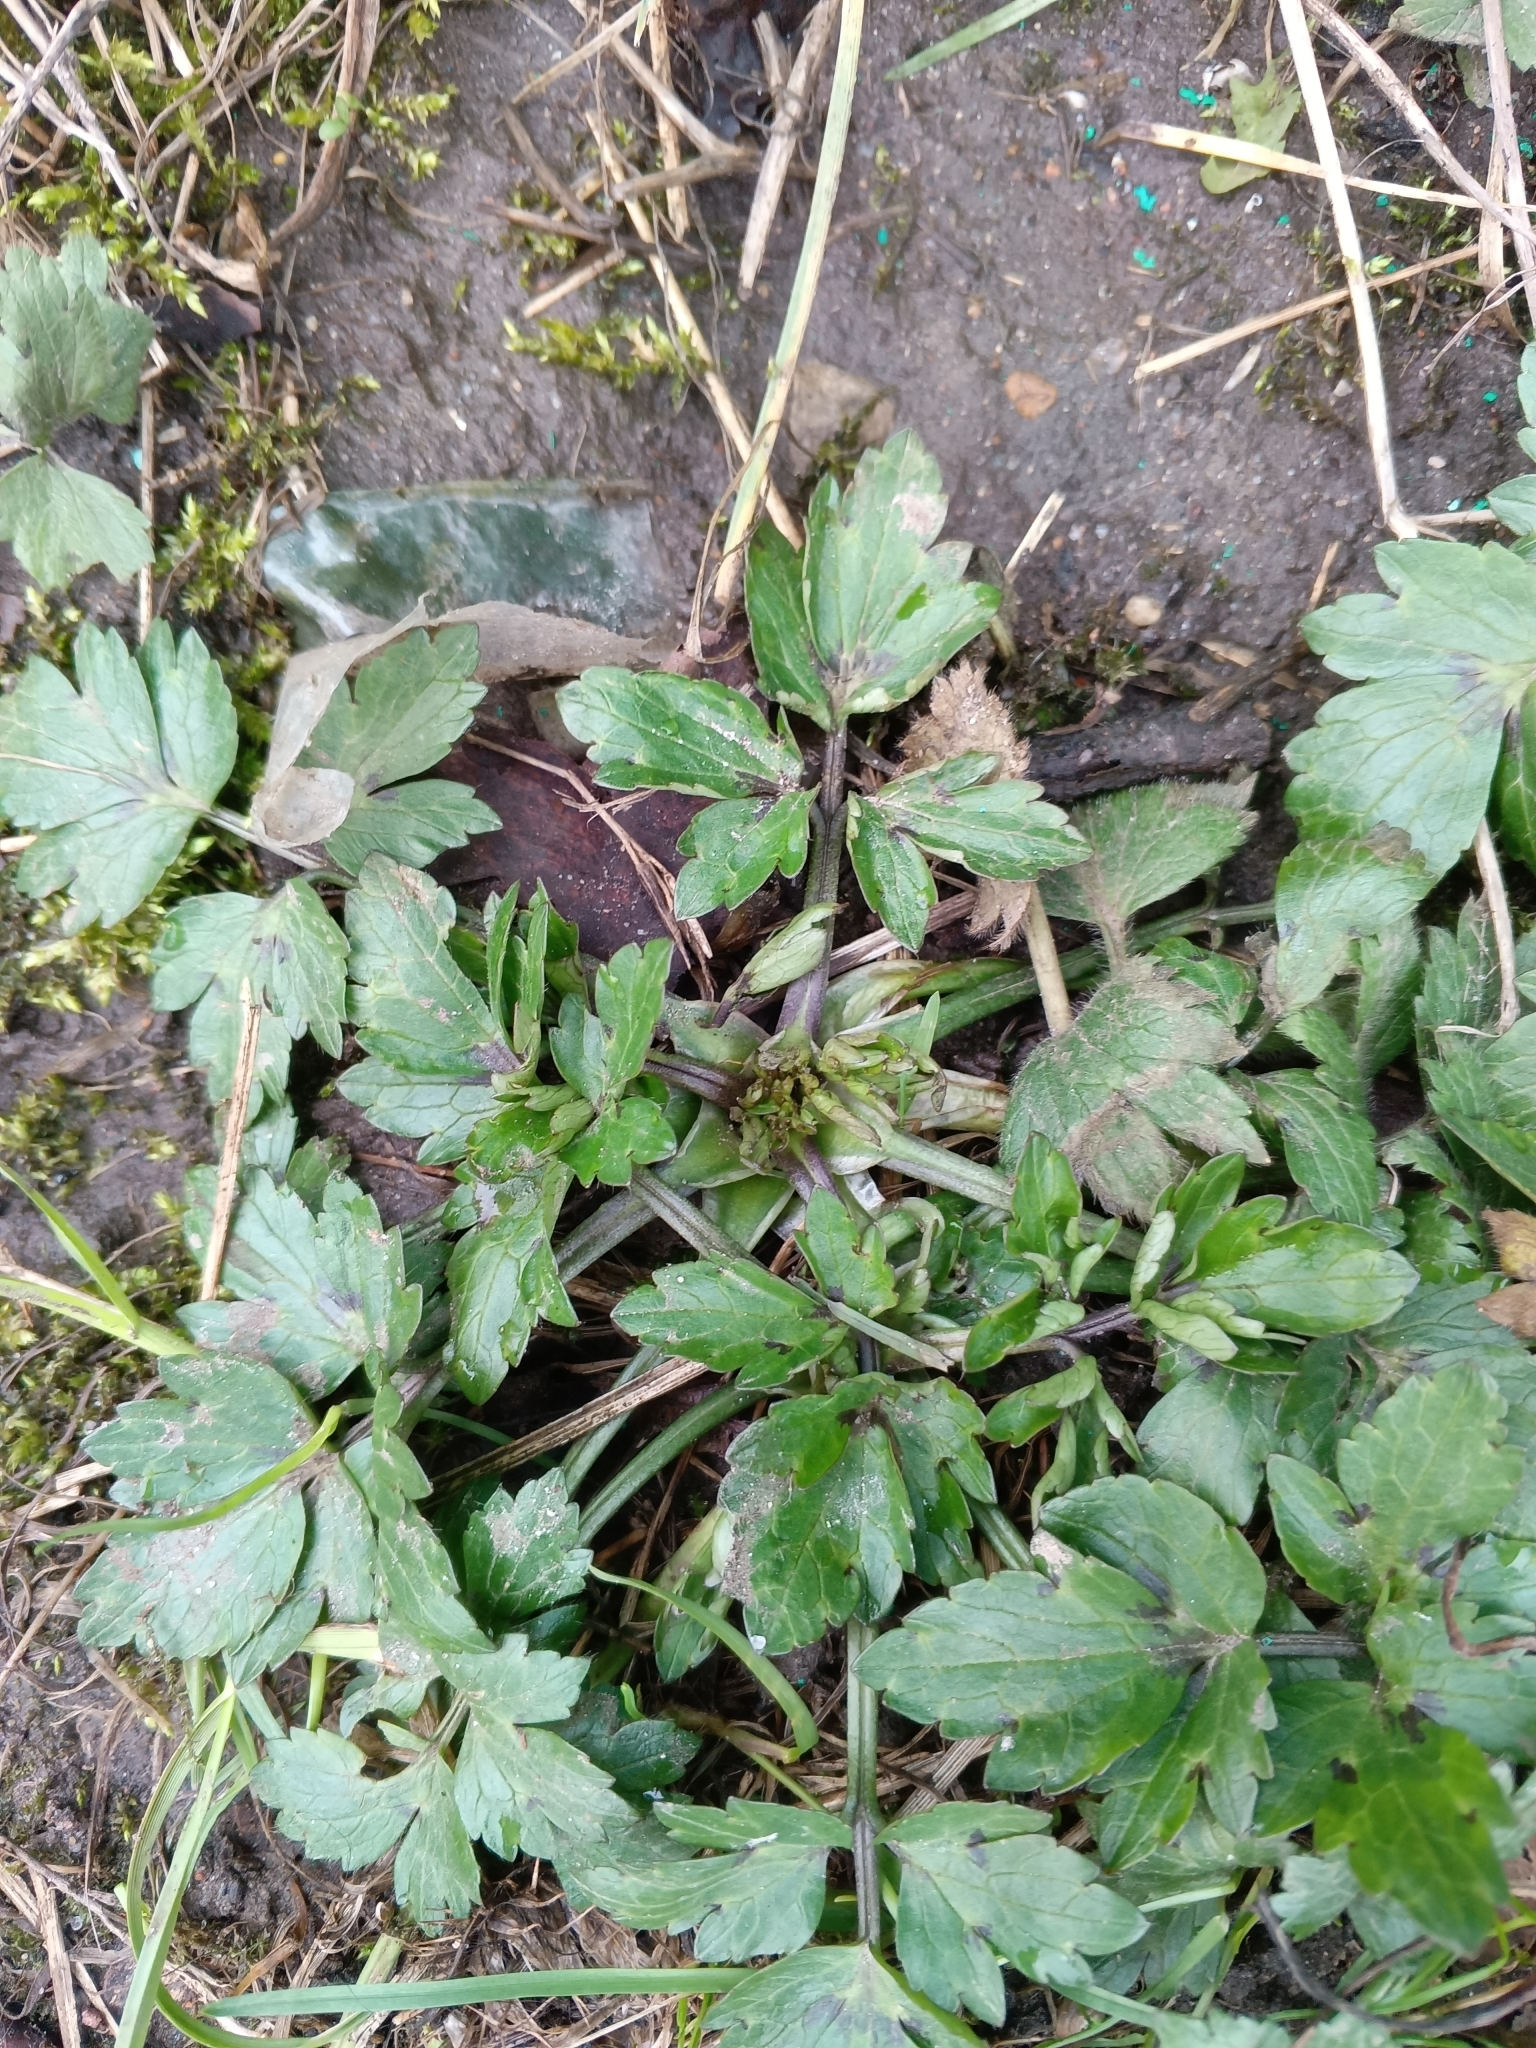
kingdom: Plantae
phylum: Tracheophyta
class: Magnoliopsida
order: Ranunculales
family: Ranunculaceae
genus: Ranunculus
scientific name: Ranunculus repens
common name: Creeping buttercup
